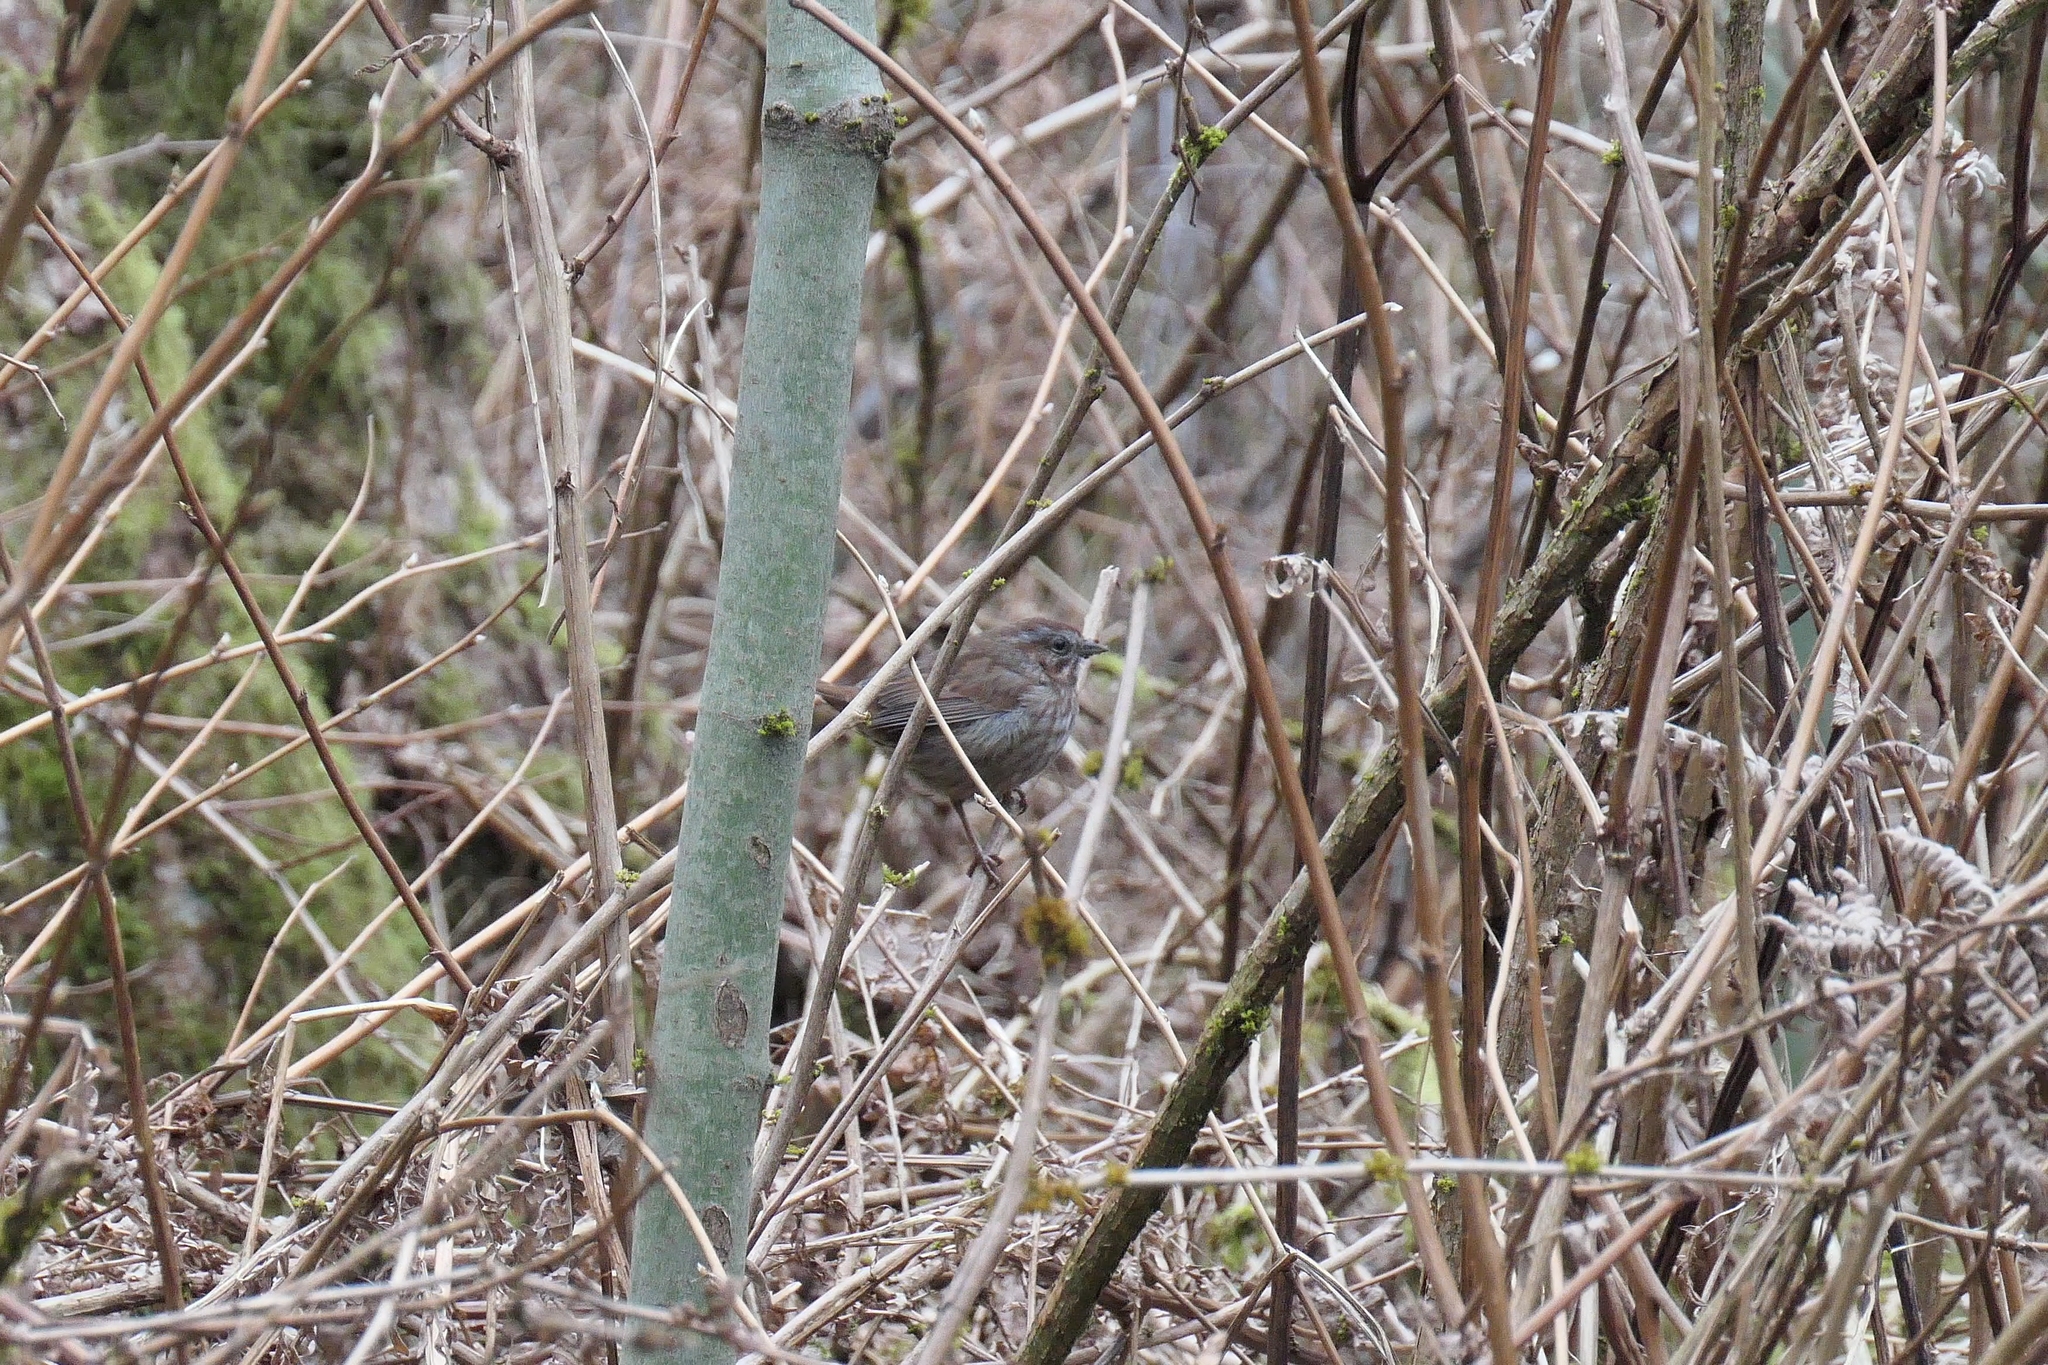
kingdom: Animalia
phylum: Chordata
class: Aves
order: Passeriformes
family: Passerellidae
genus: Melospiza
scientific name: Melospiza melodia
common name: Song sparrow
